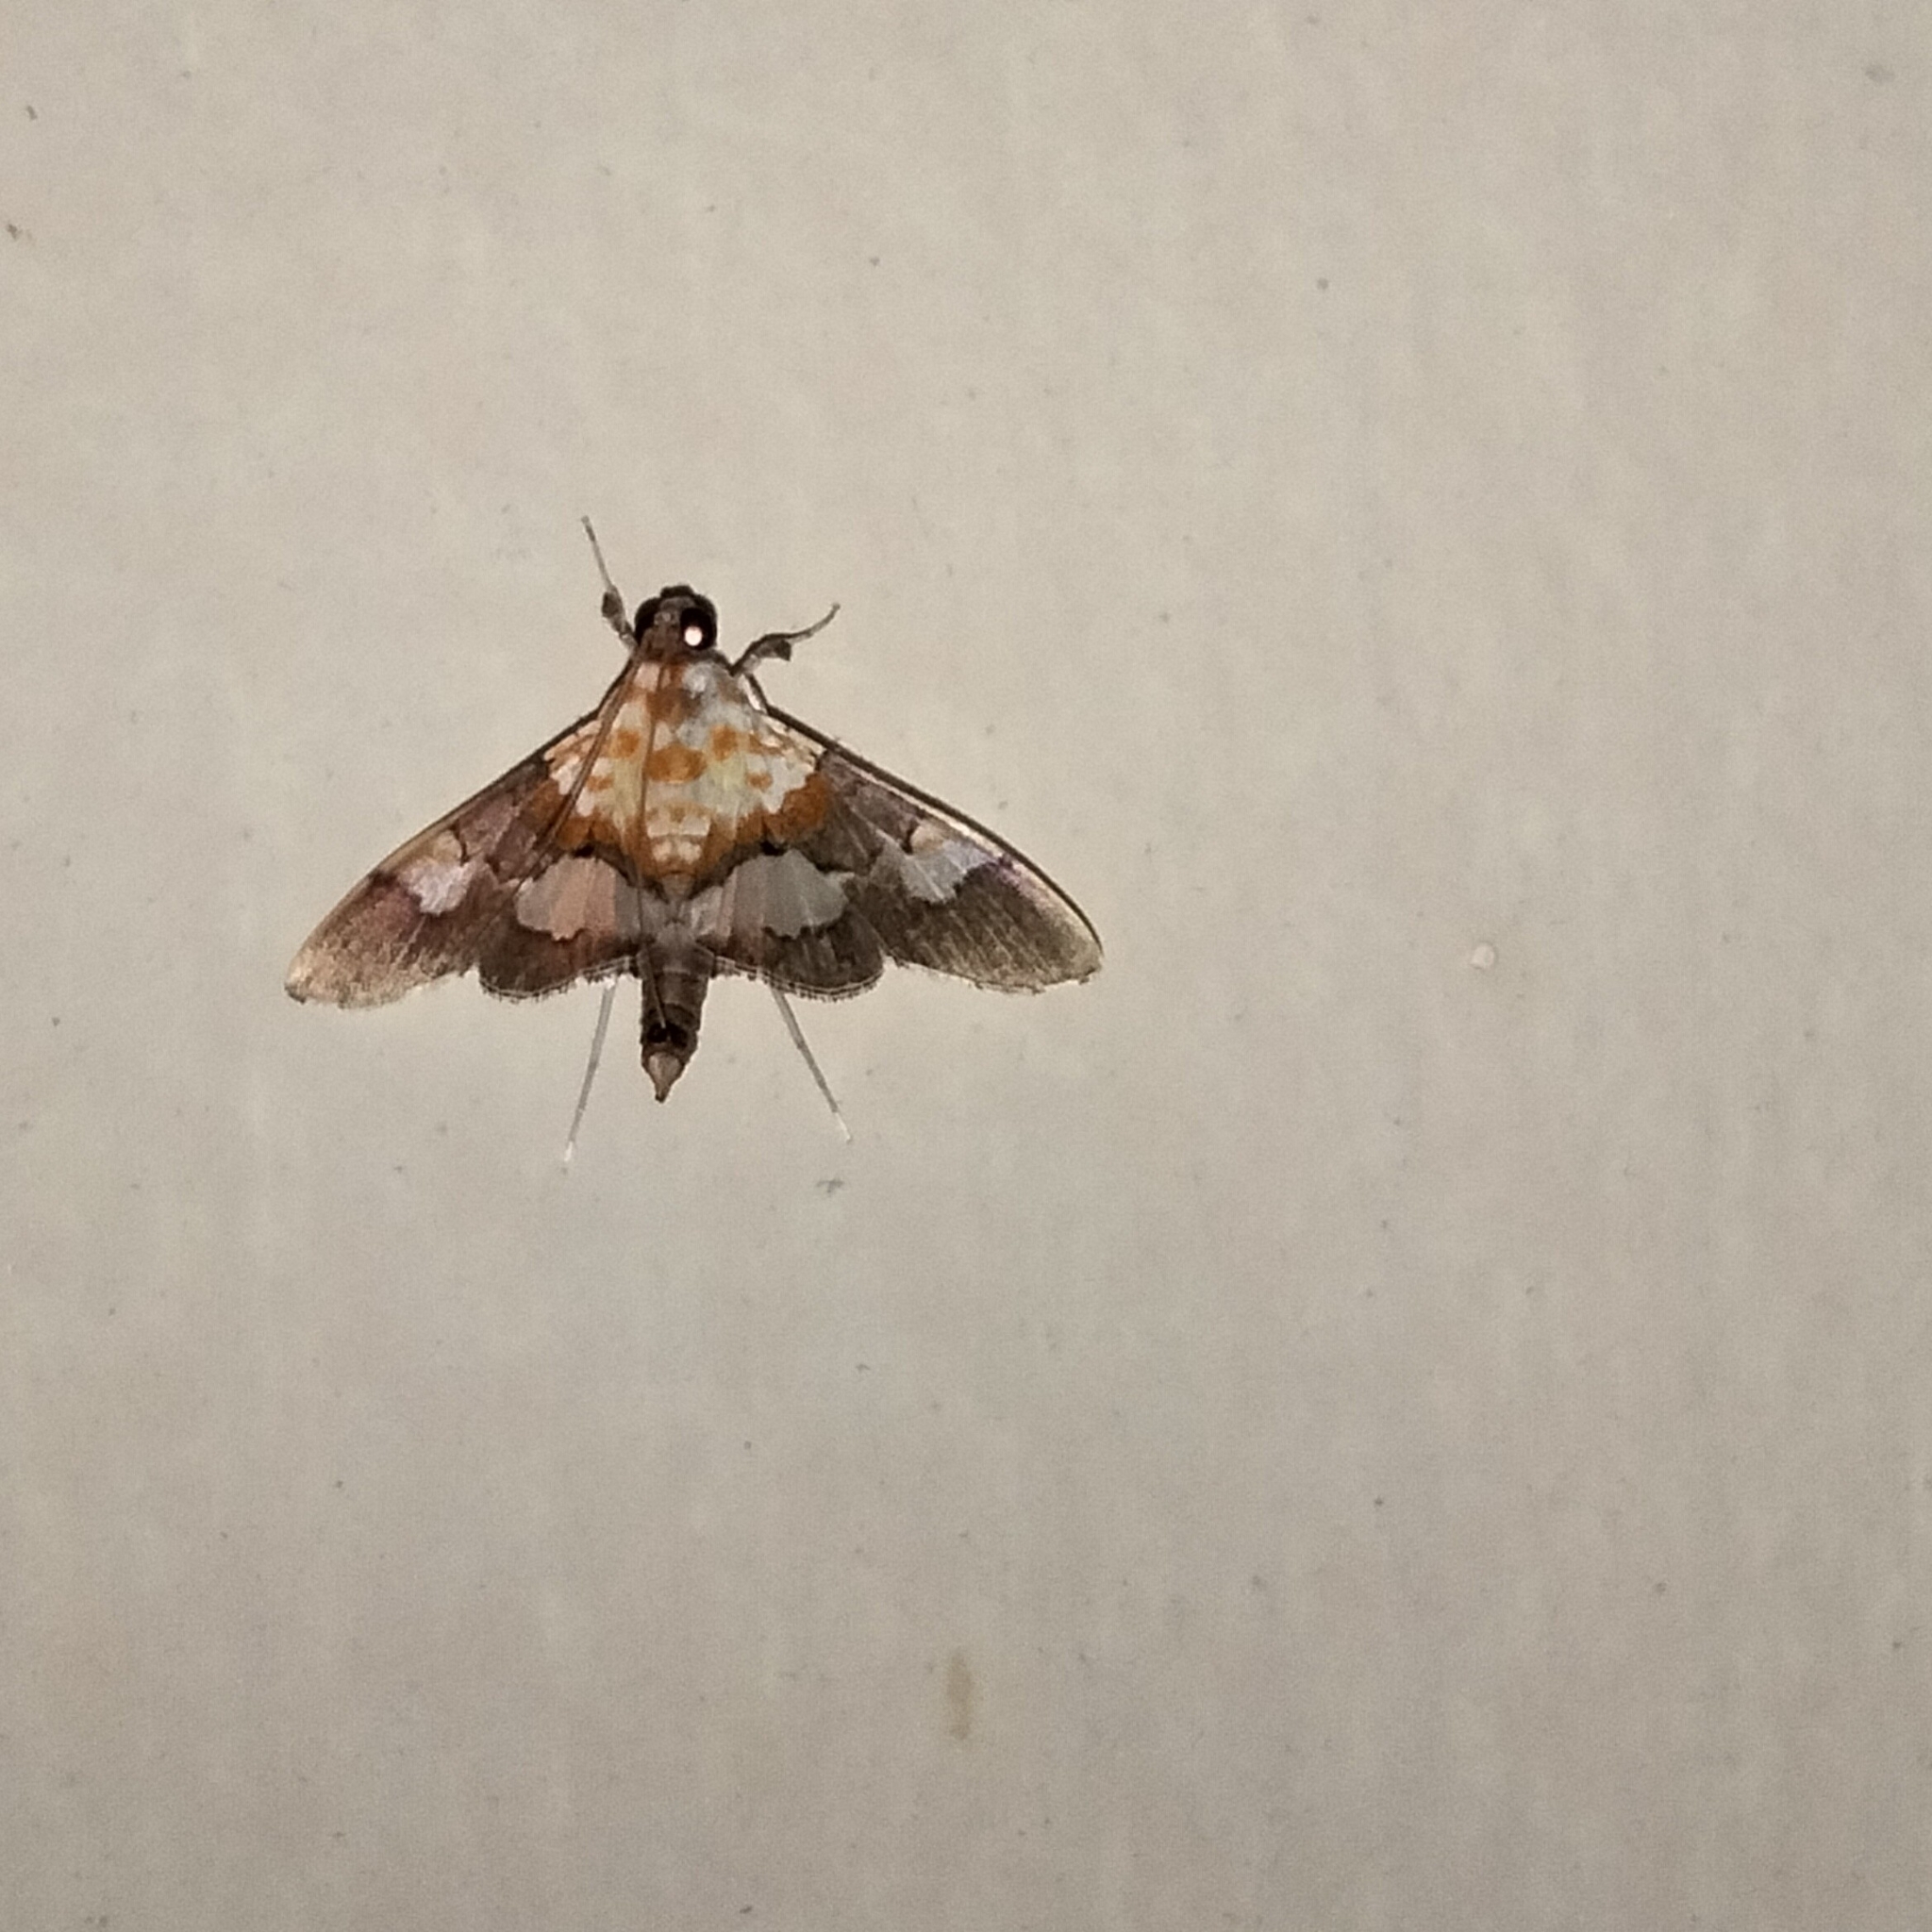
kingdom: Animalia
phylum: Arthropoda
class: Insecta
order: Lepidoptera
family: Crambidae
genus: Aetholix
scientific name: Aetholix flavibasalis
